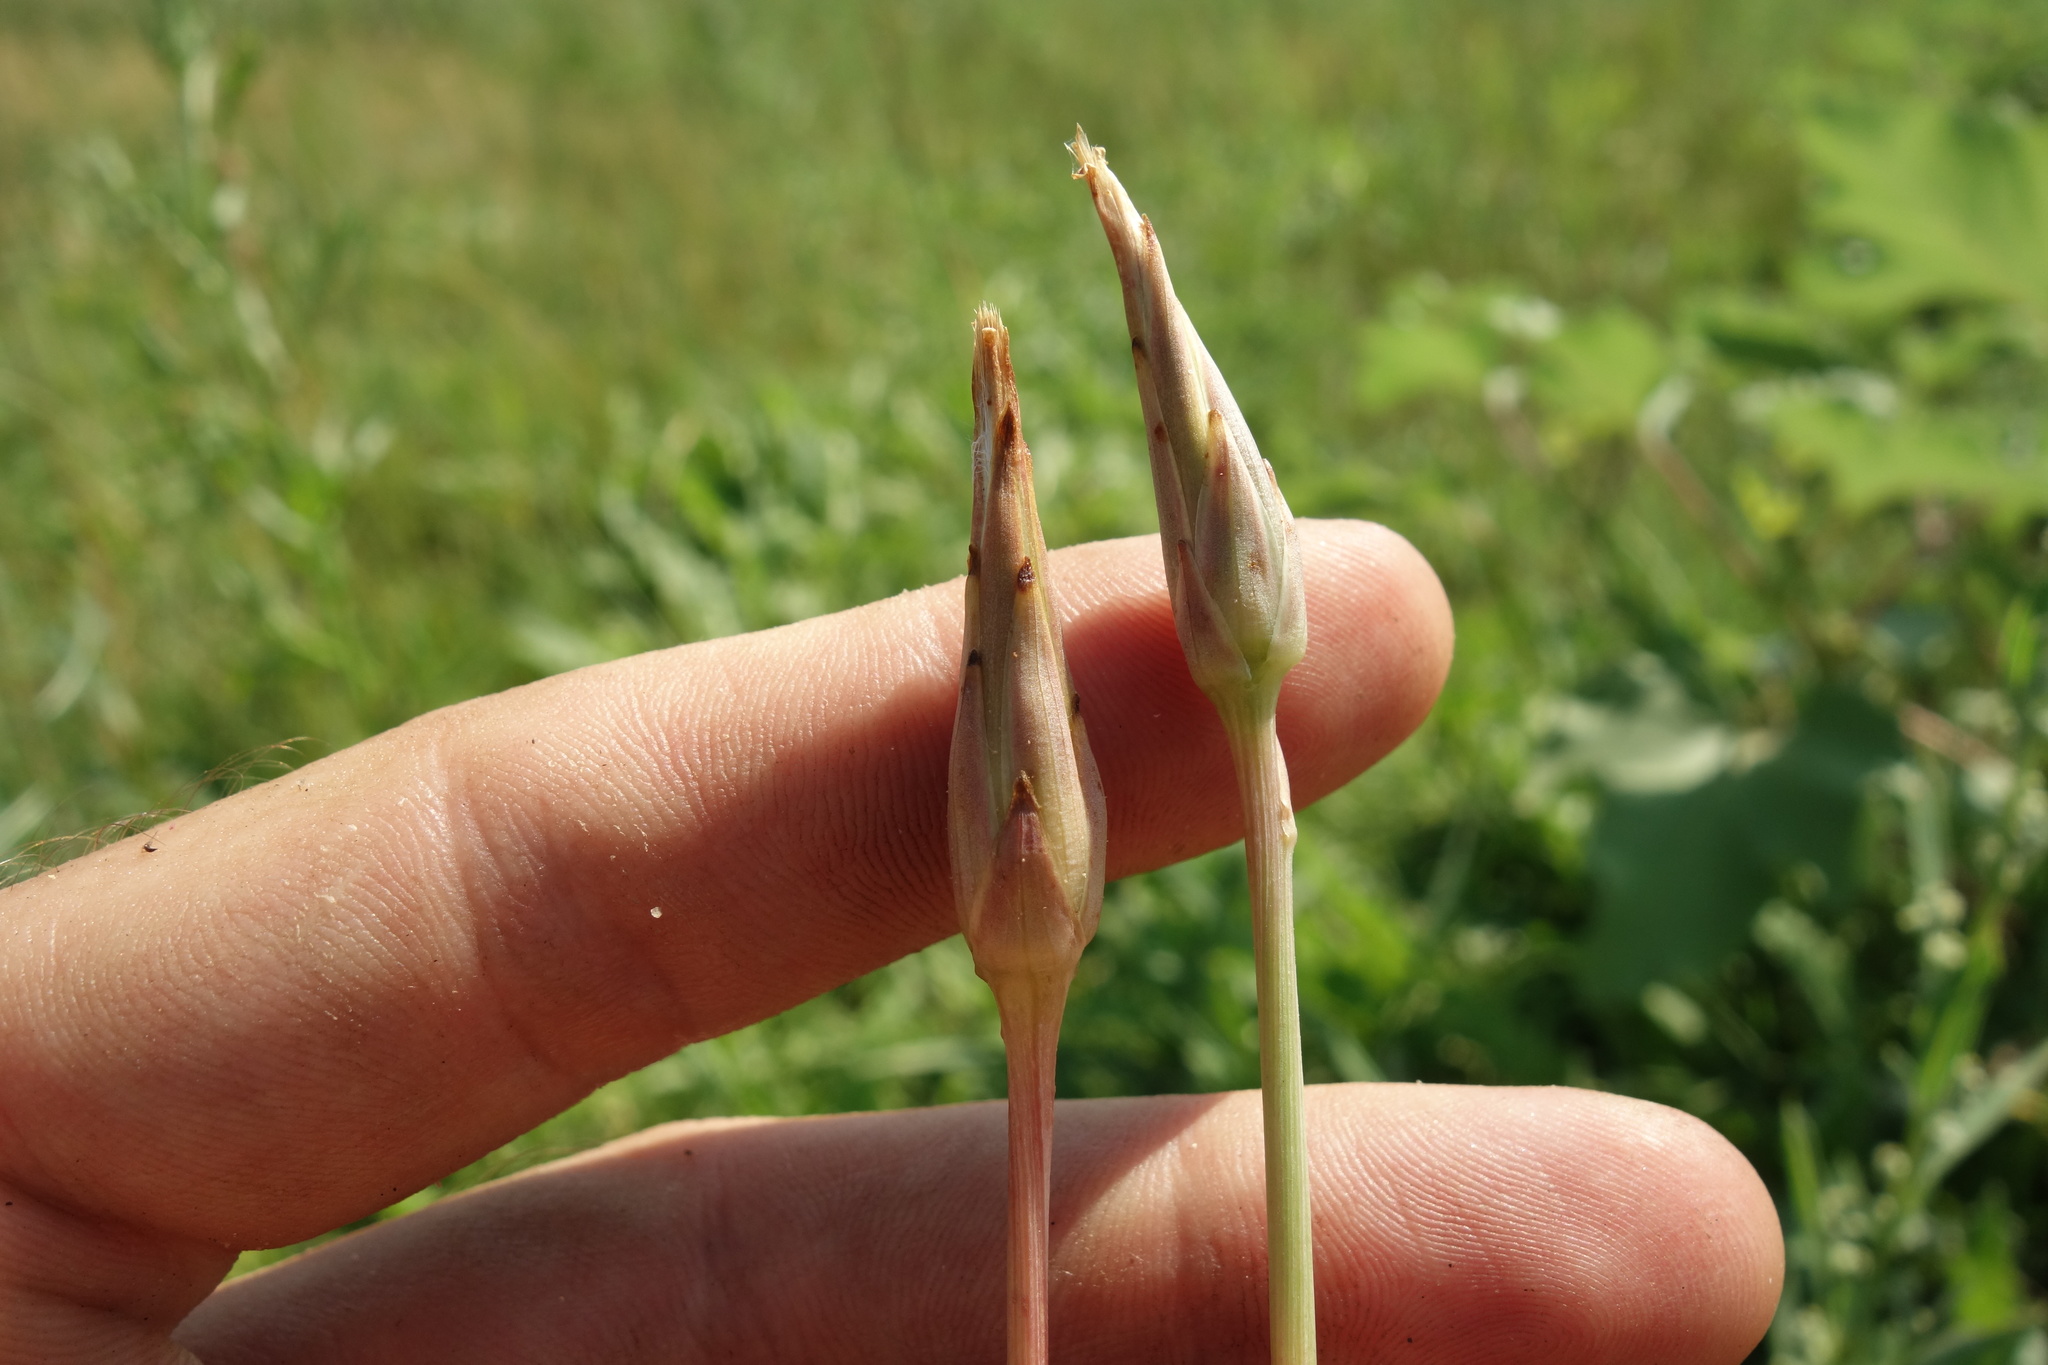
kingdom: Plantae
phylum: Tracheophyta
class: Magnoliopsida
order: Asterales
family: Asteraceae
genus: Scorzonera
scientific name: Scorzonera parviflora
